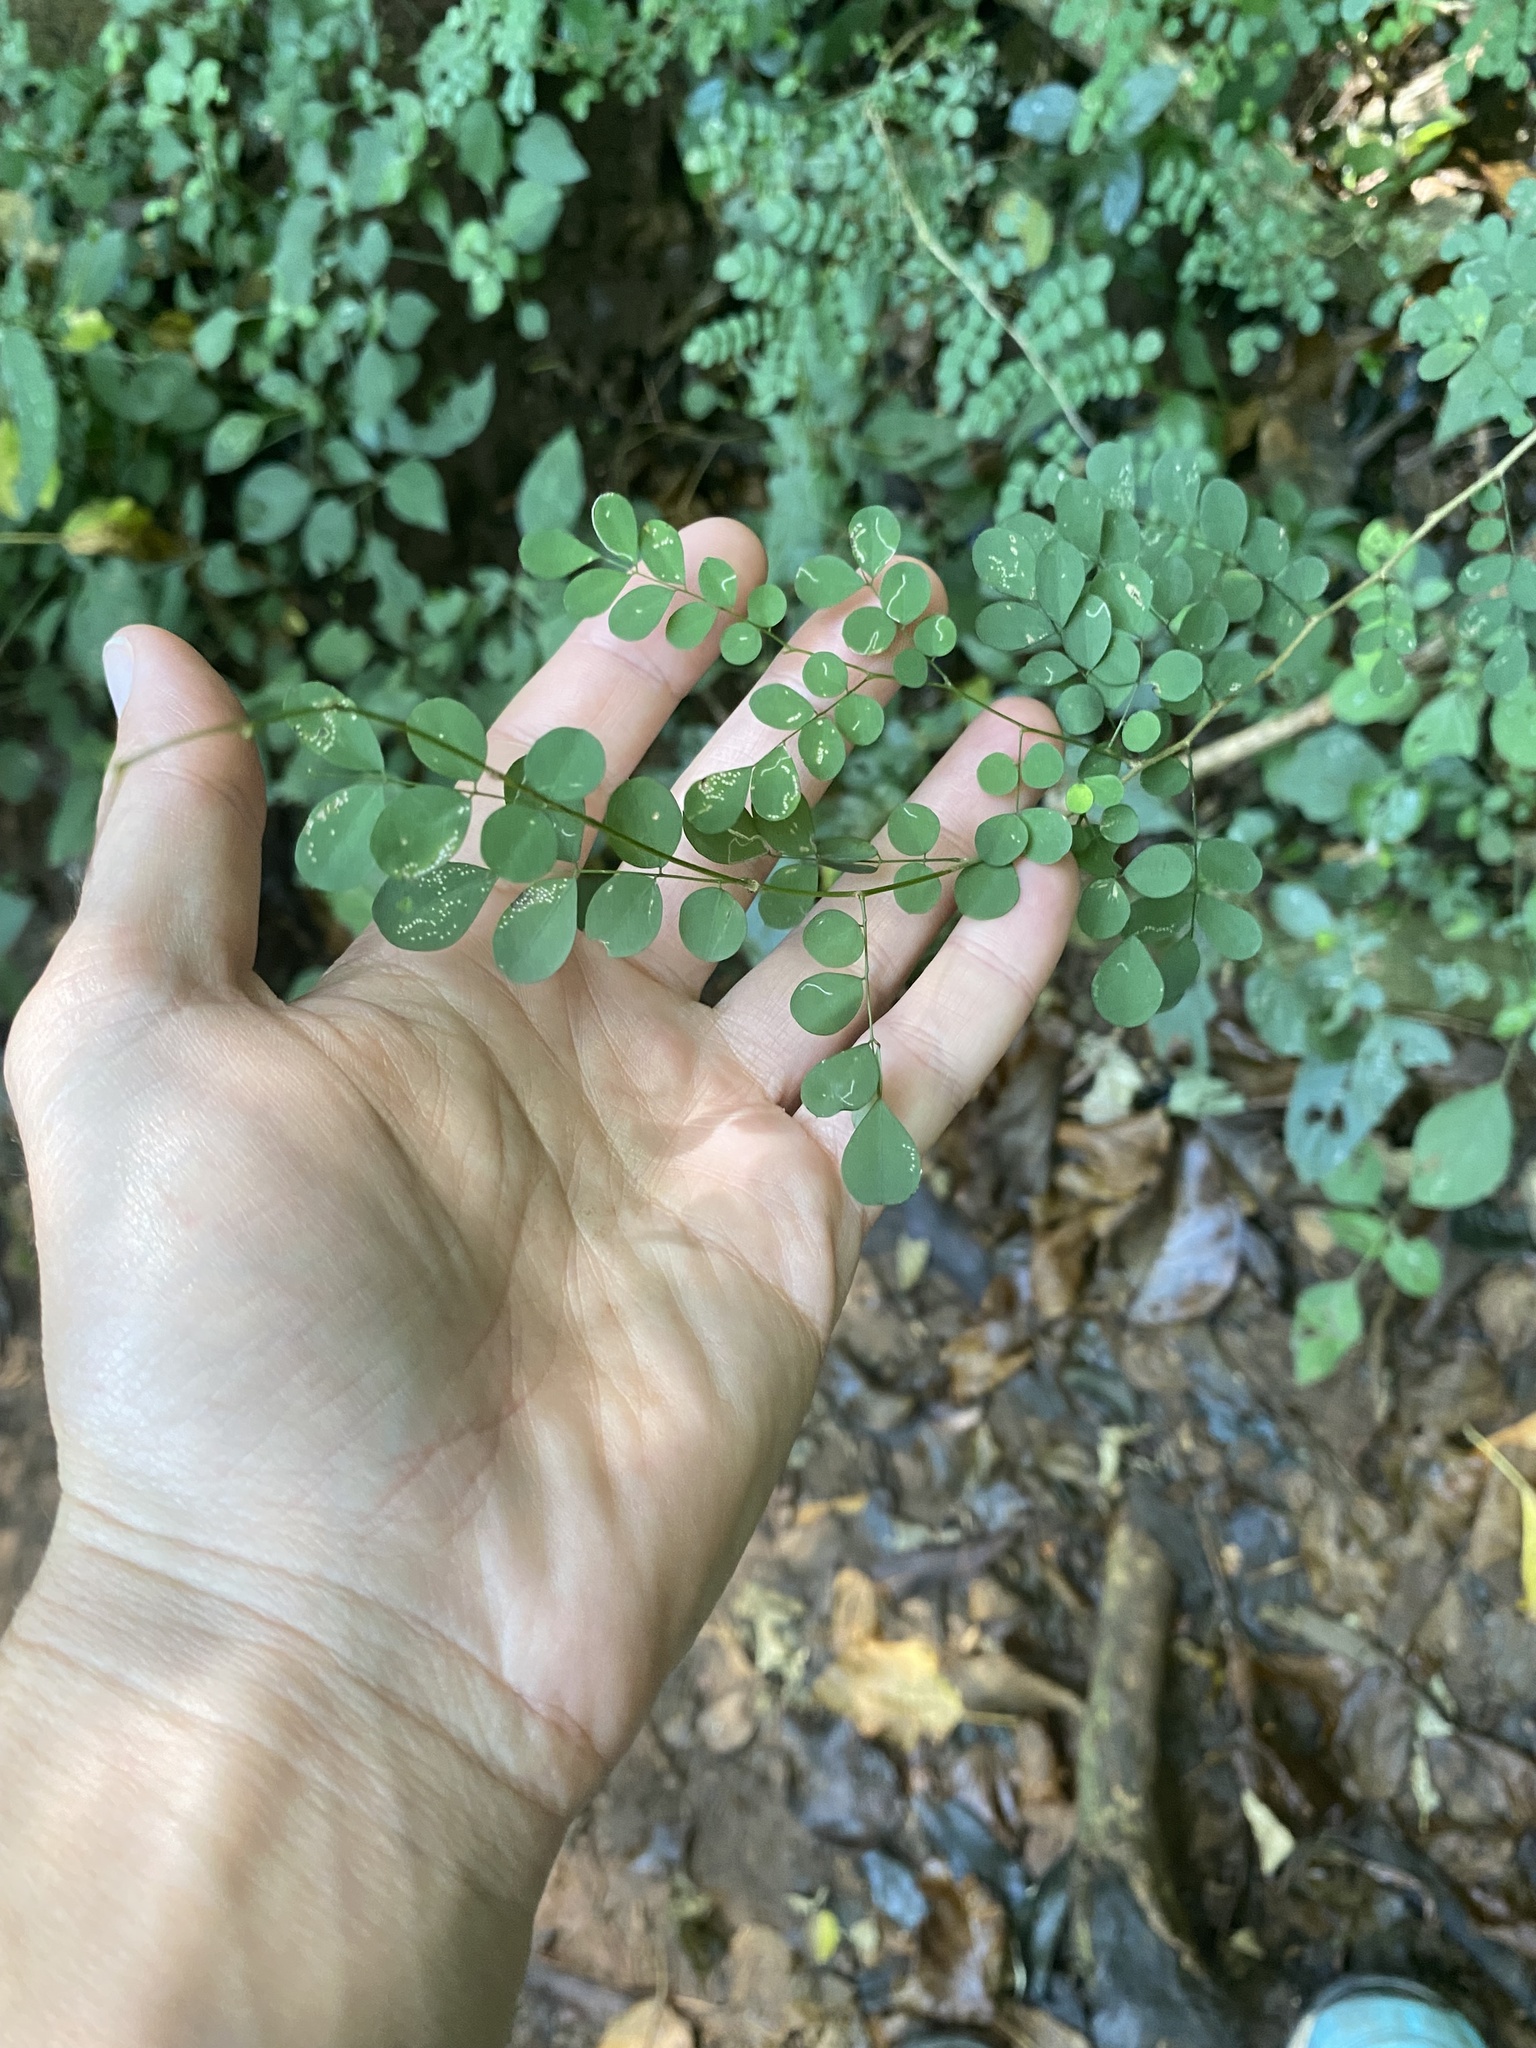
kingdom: Plantae
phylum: Tracheophyta
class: Magnoliopsida
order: Fabales
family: Fabaceae
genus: Indigofera
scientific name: Indigofera
